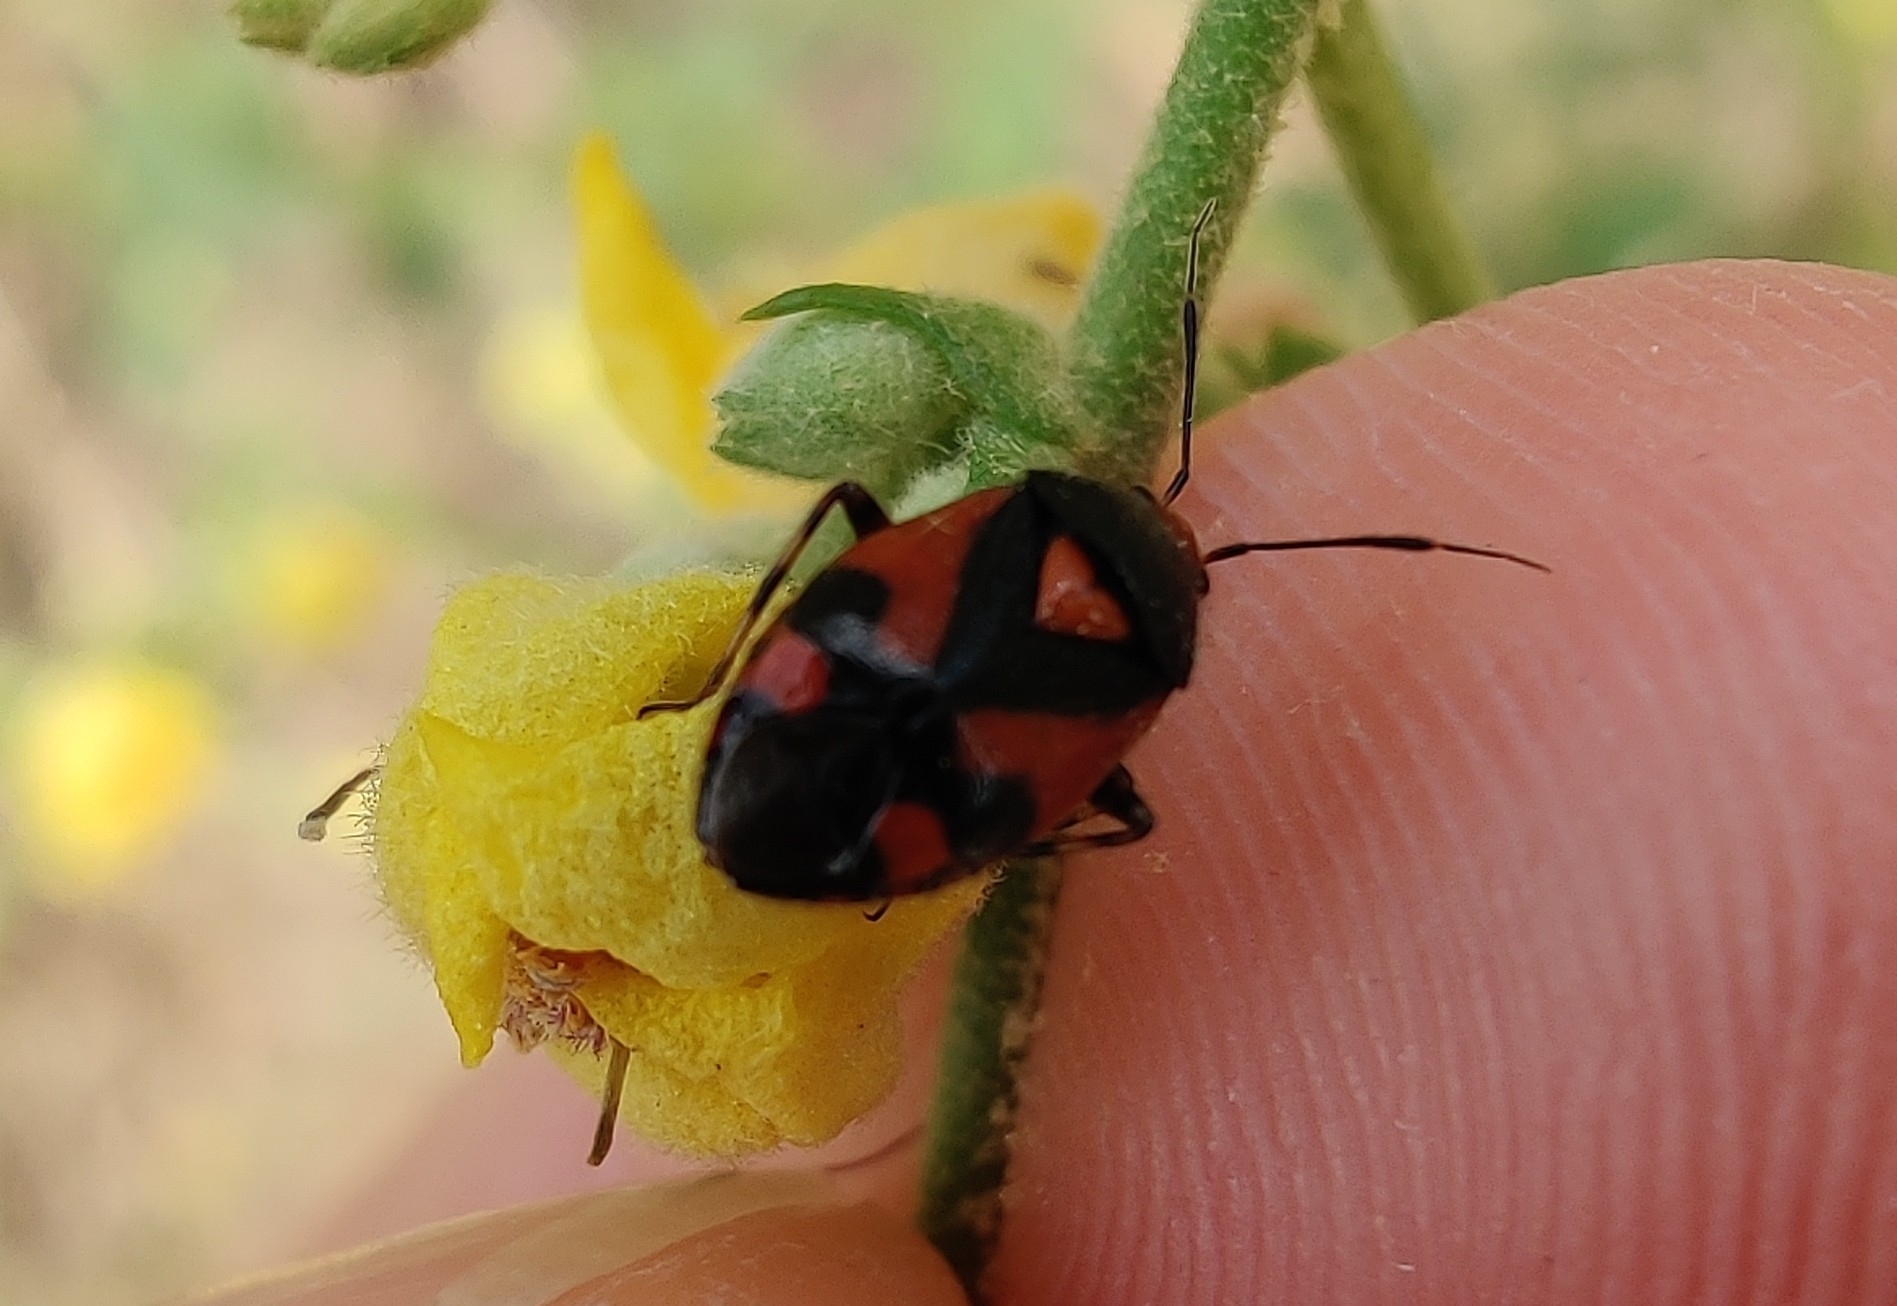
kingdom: Animalia
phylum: Arthropoda
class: Insecta
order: Hemiptera
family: Miridae
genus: Deraeocoris
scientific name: Deraeocoris schach
